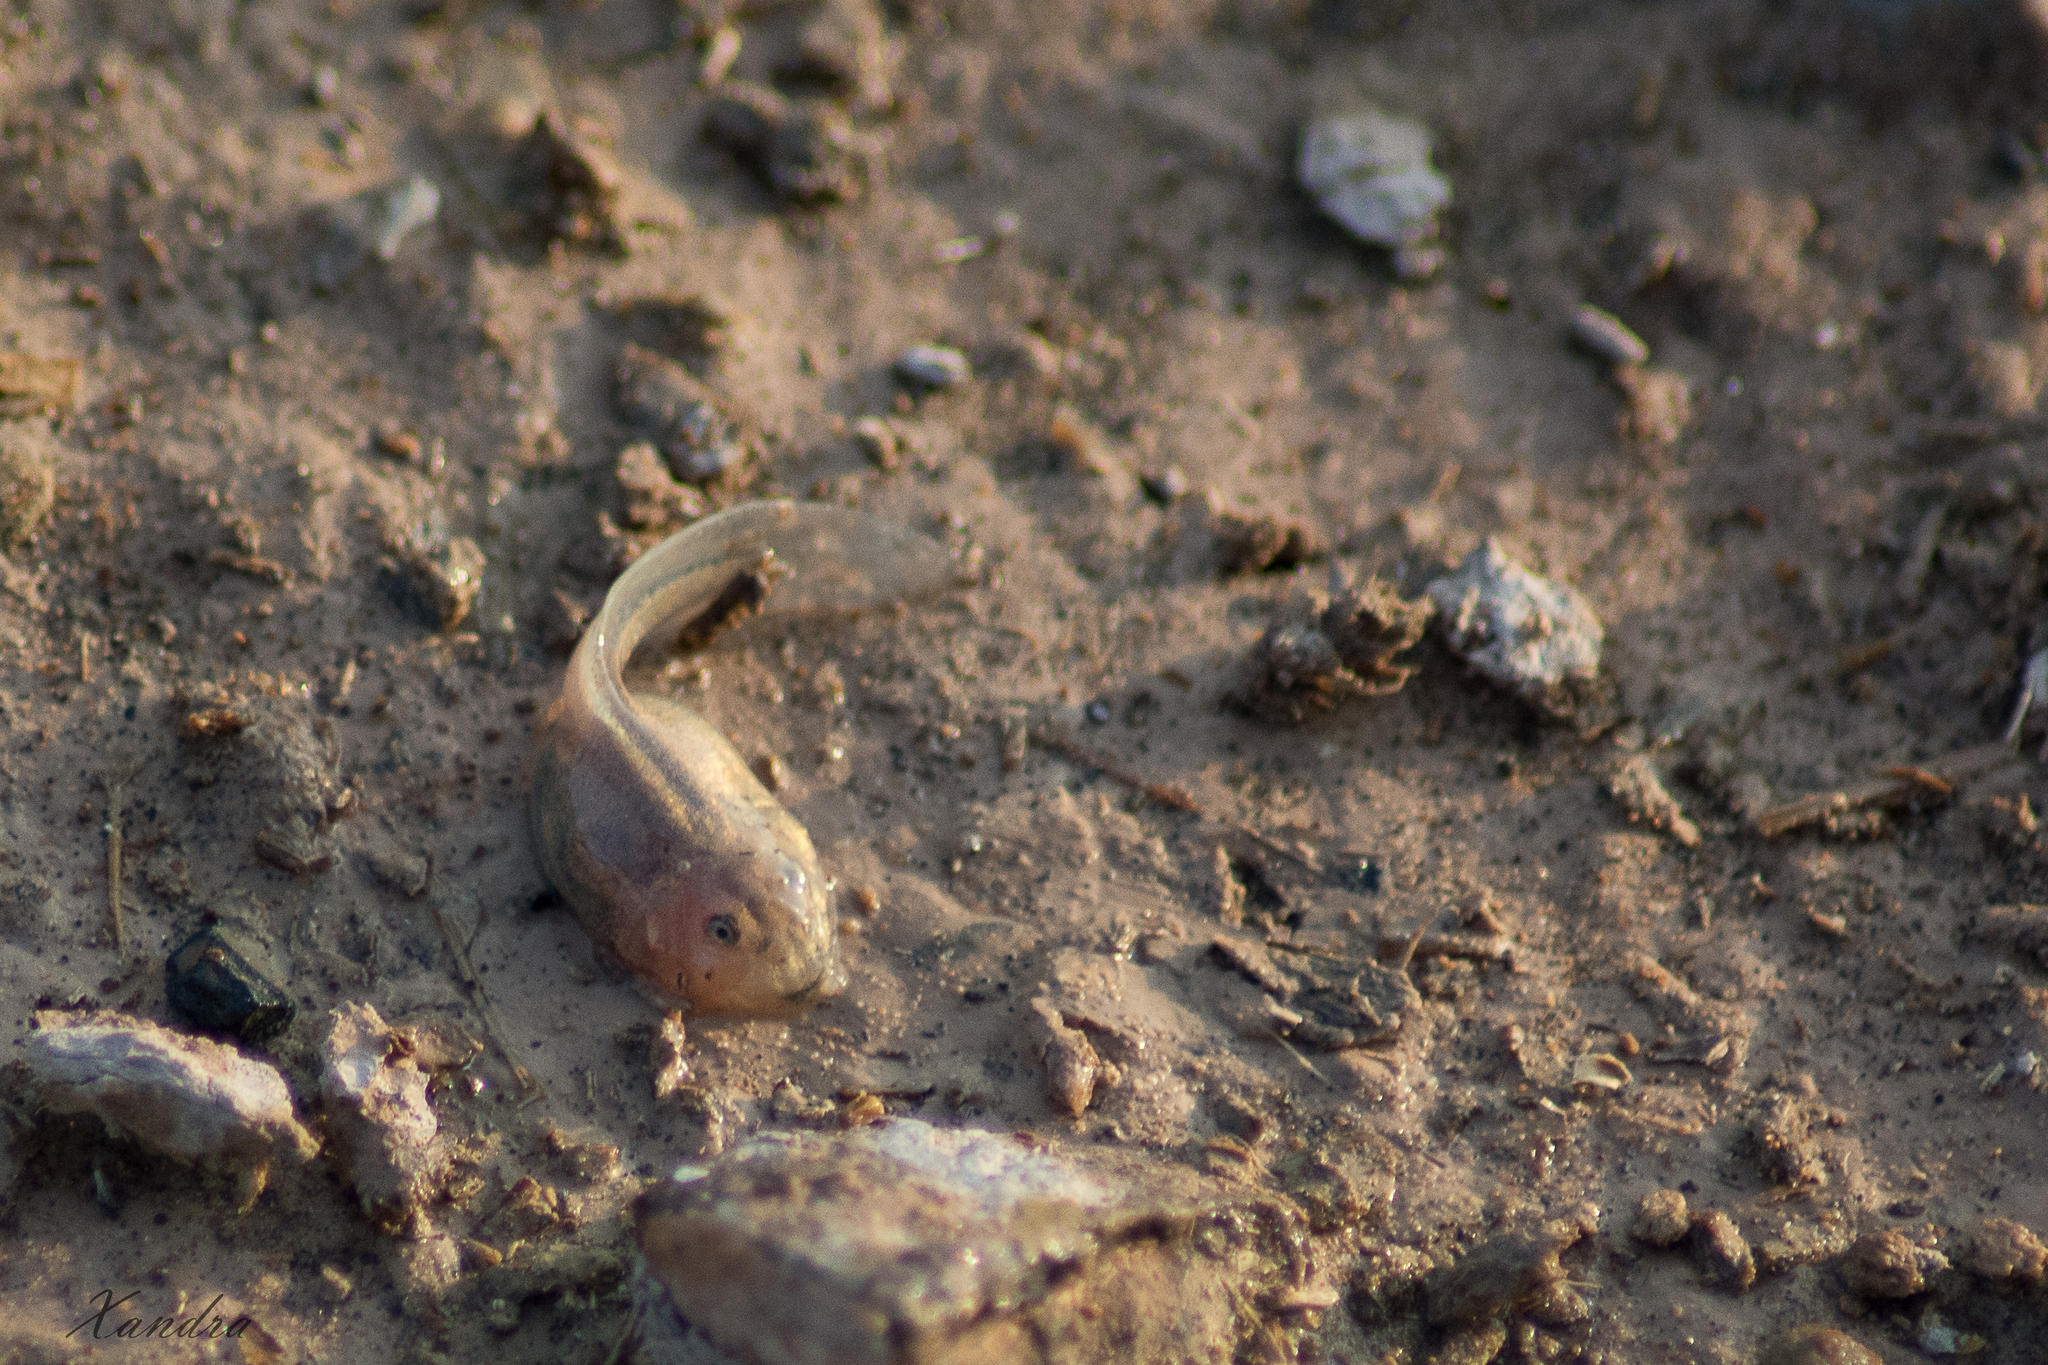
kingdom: Animalia
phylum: Chordata
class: Amphibia
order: Anura
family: Leptodactylidae
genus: Pleurodema
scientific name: Pleurodema nebulosum
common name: Mendoza four-eyed frog
